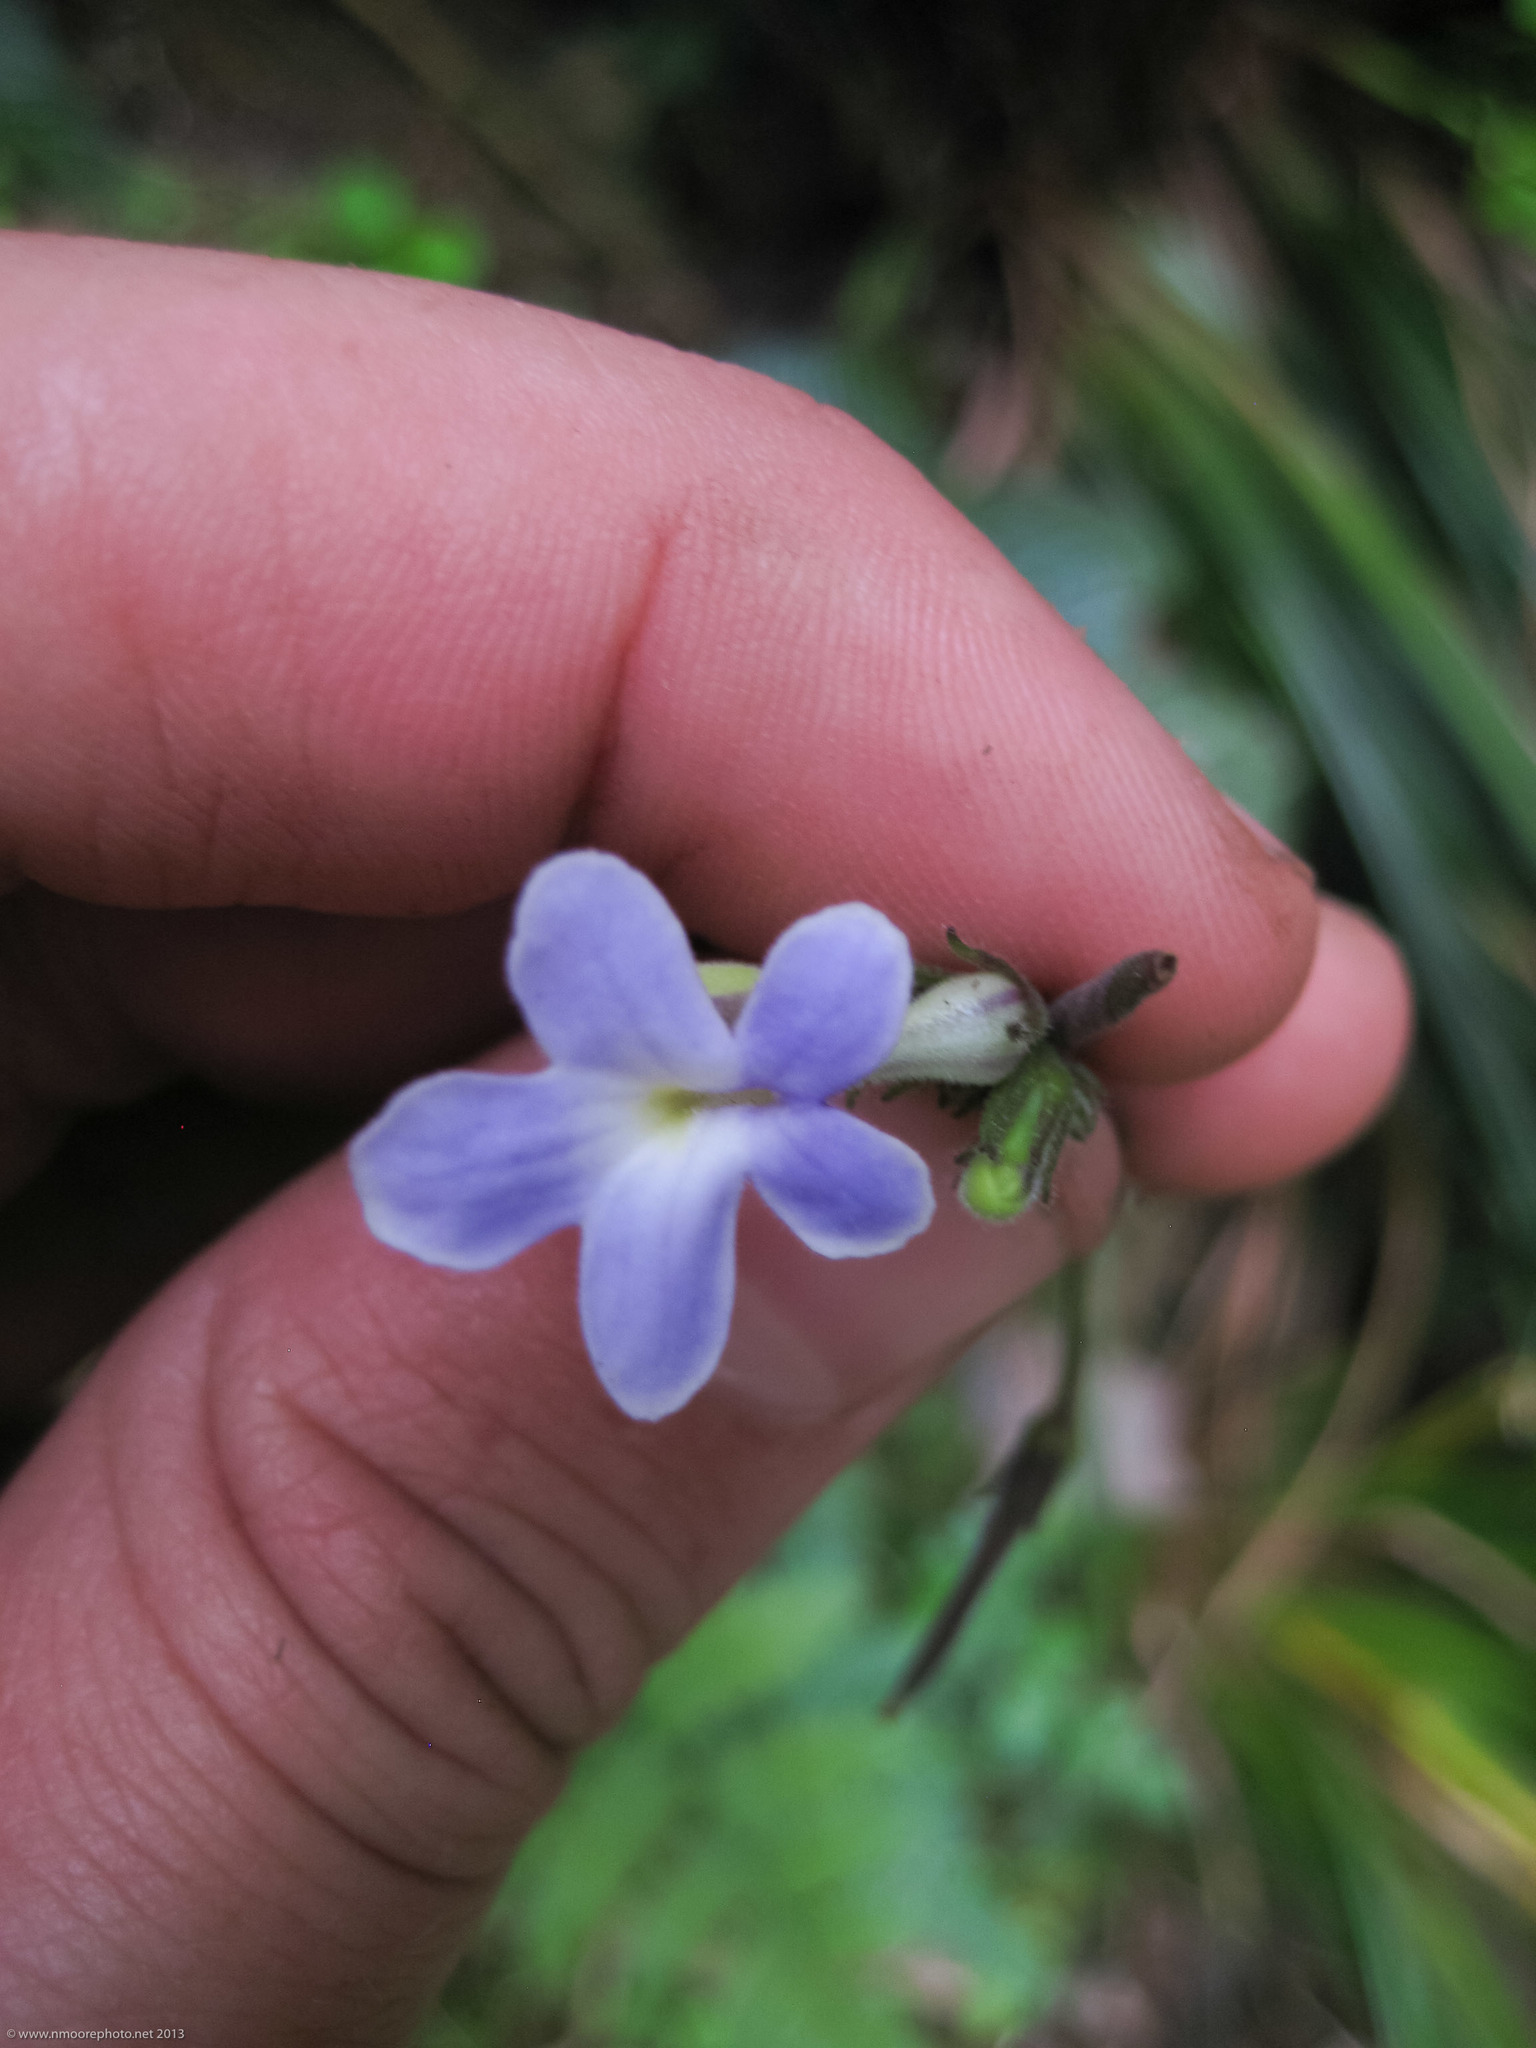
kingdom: Plantae
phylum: Tracheophyta
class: Magnoliopsida
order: Lamiales
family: Gesneriaceae
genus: Streptocarpus
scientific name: Streptocarpus polyanthus
